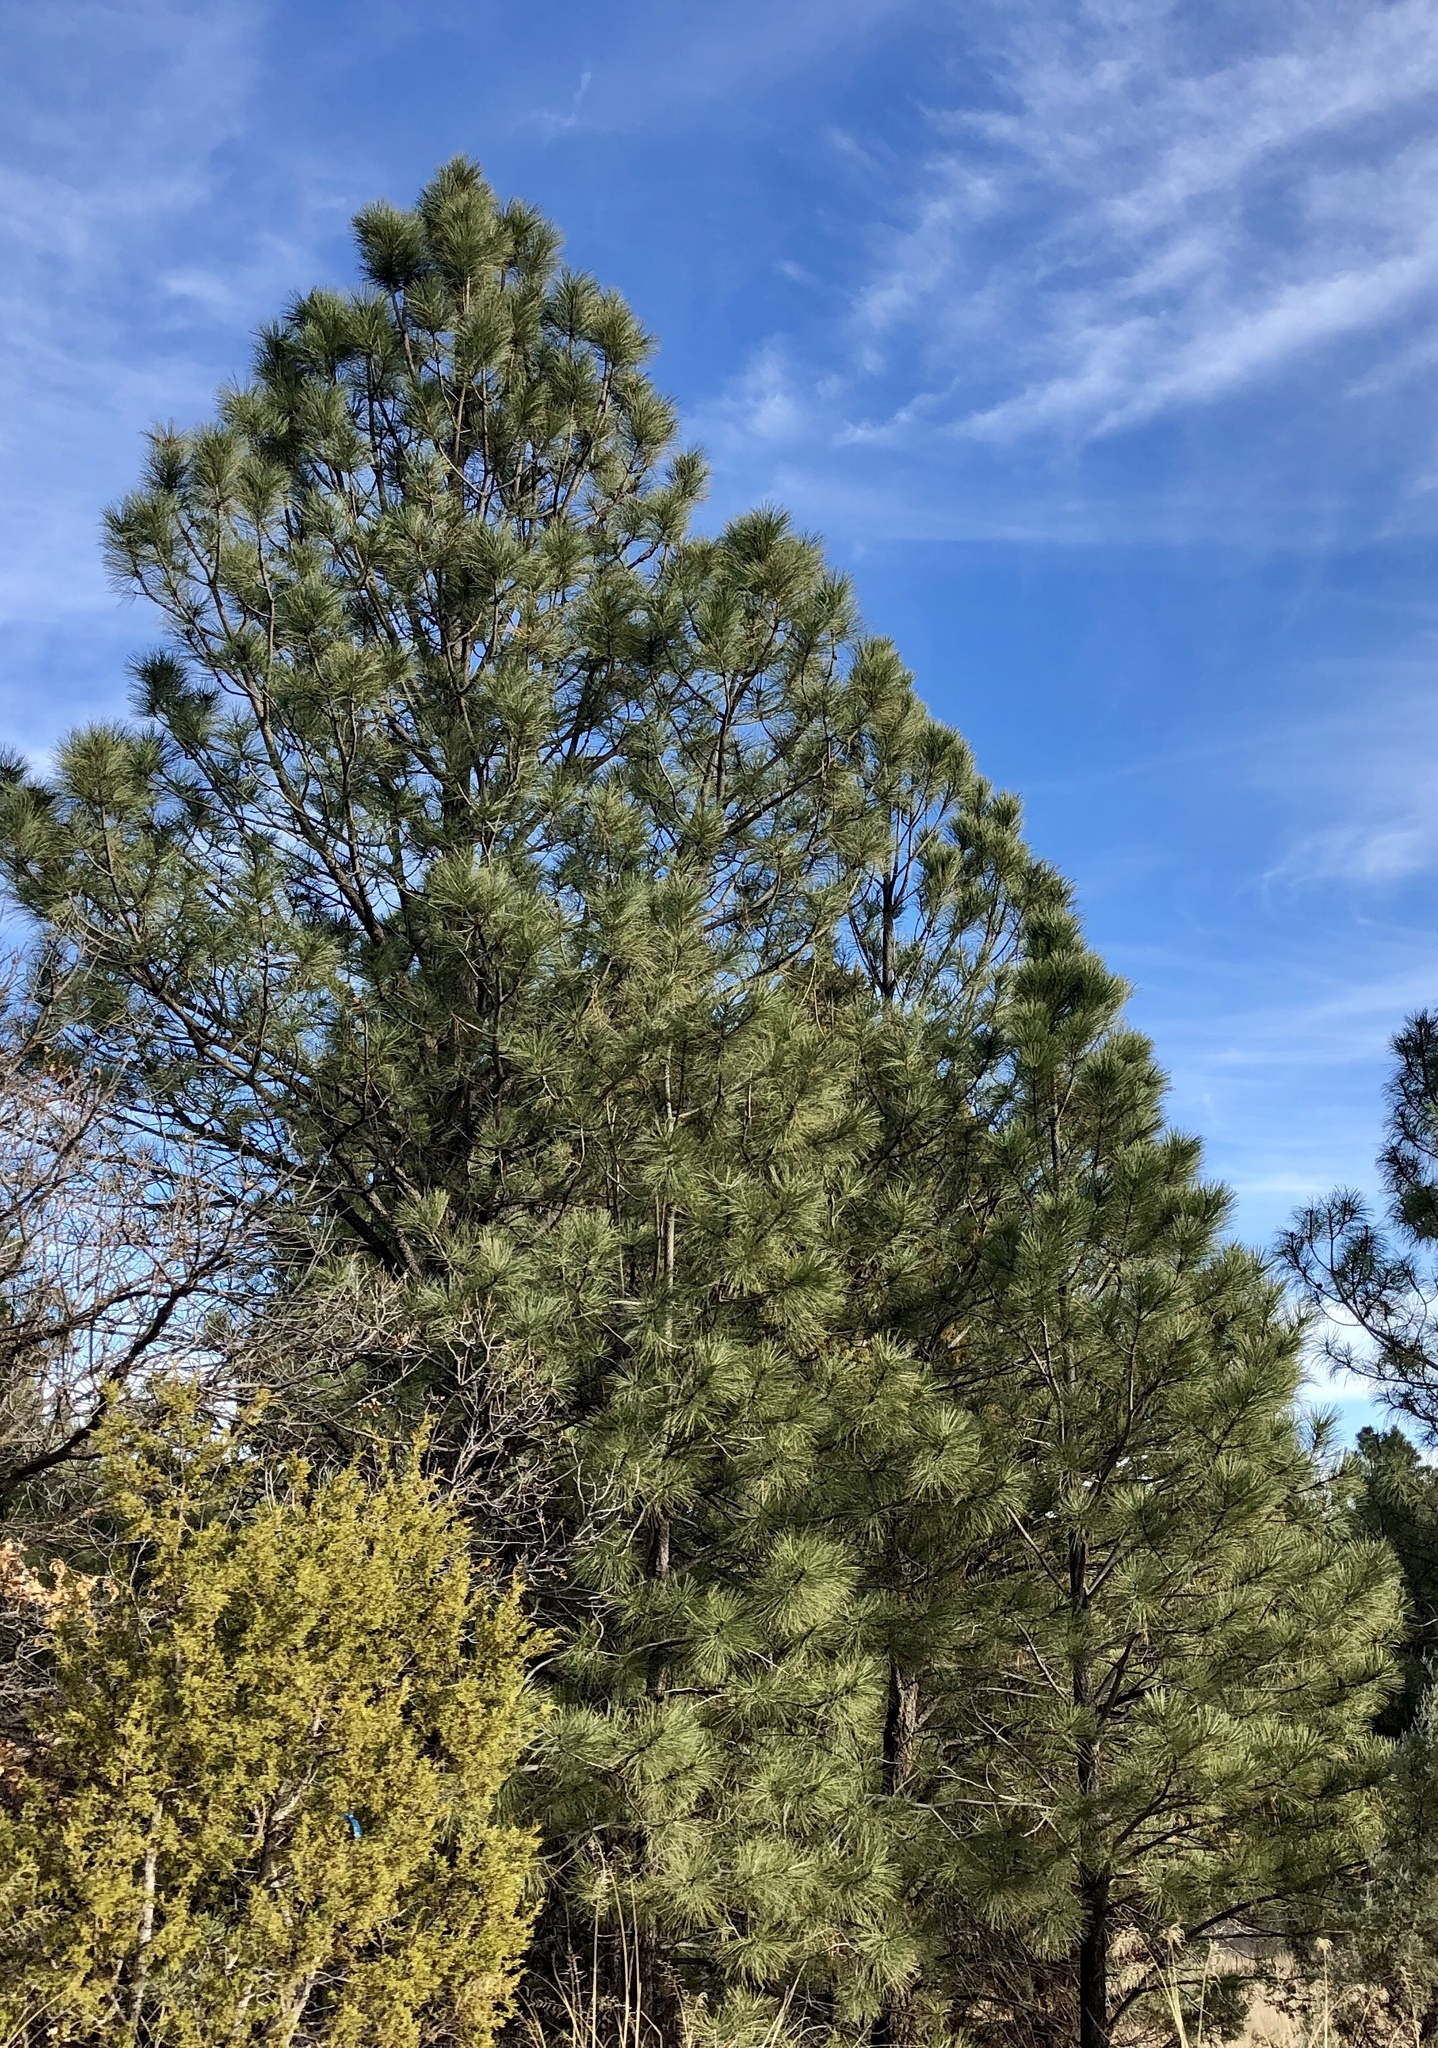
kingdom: Plantae
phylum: Tracheophyta
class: Pinopsida
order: Pinales
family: Pinaceae
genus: Pinus
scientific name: Pinus ponderosa
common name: Western yellow-pine
